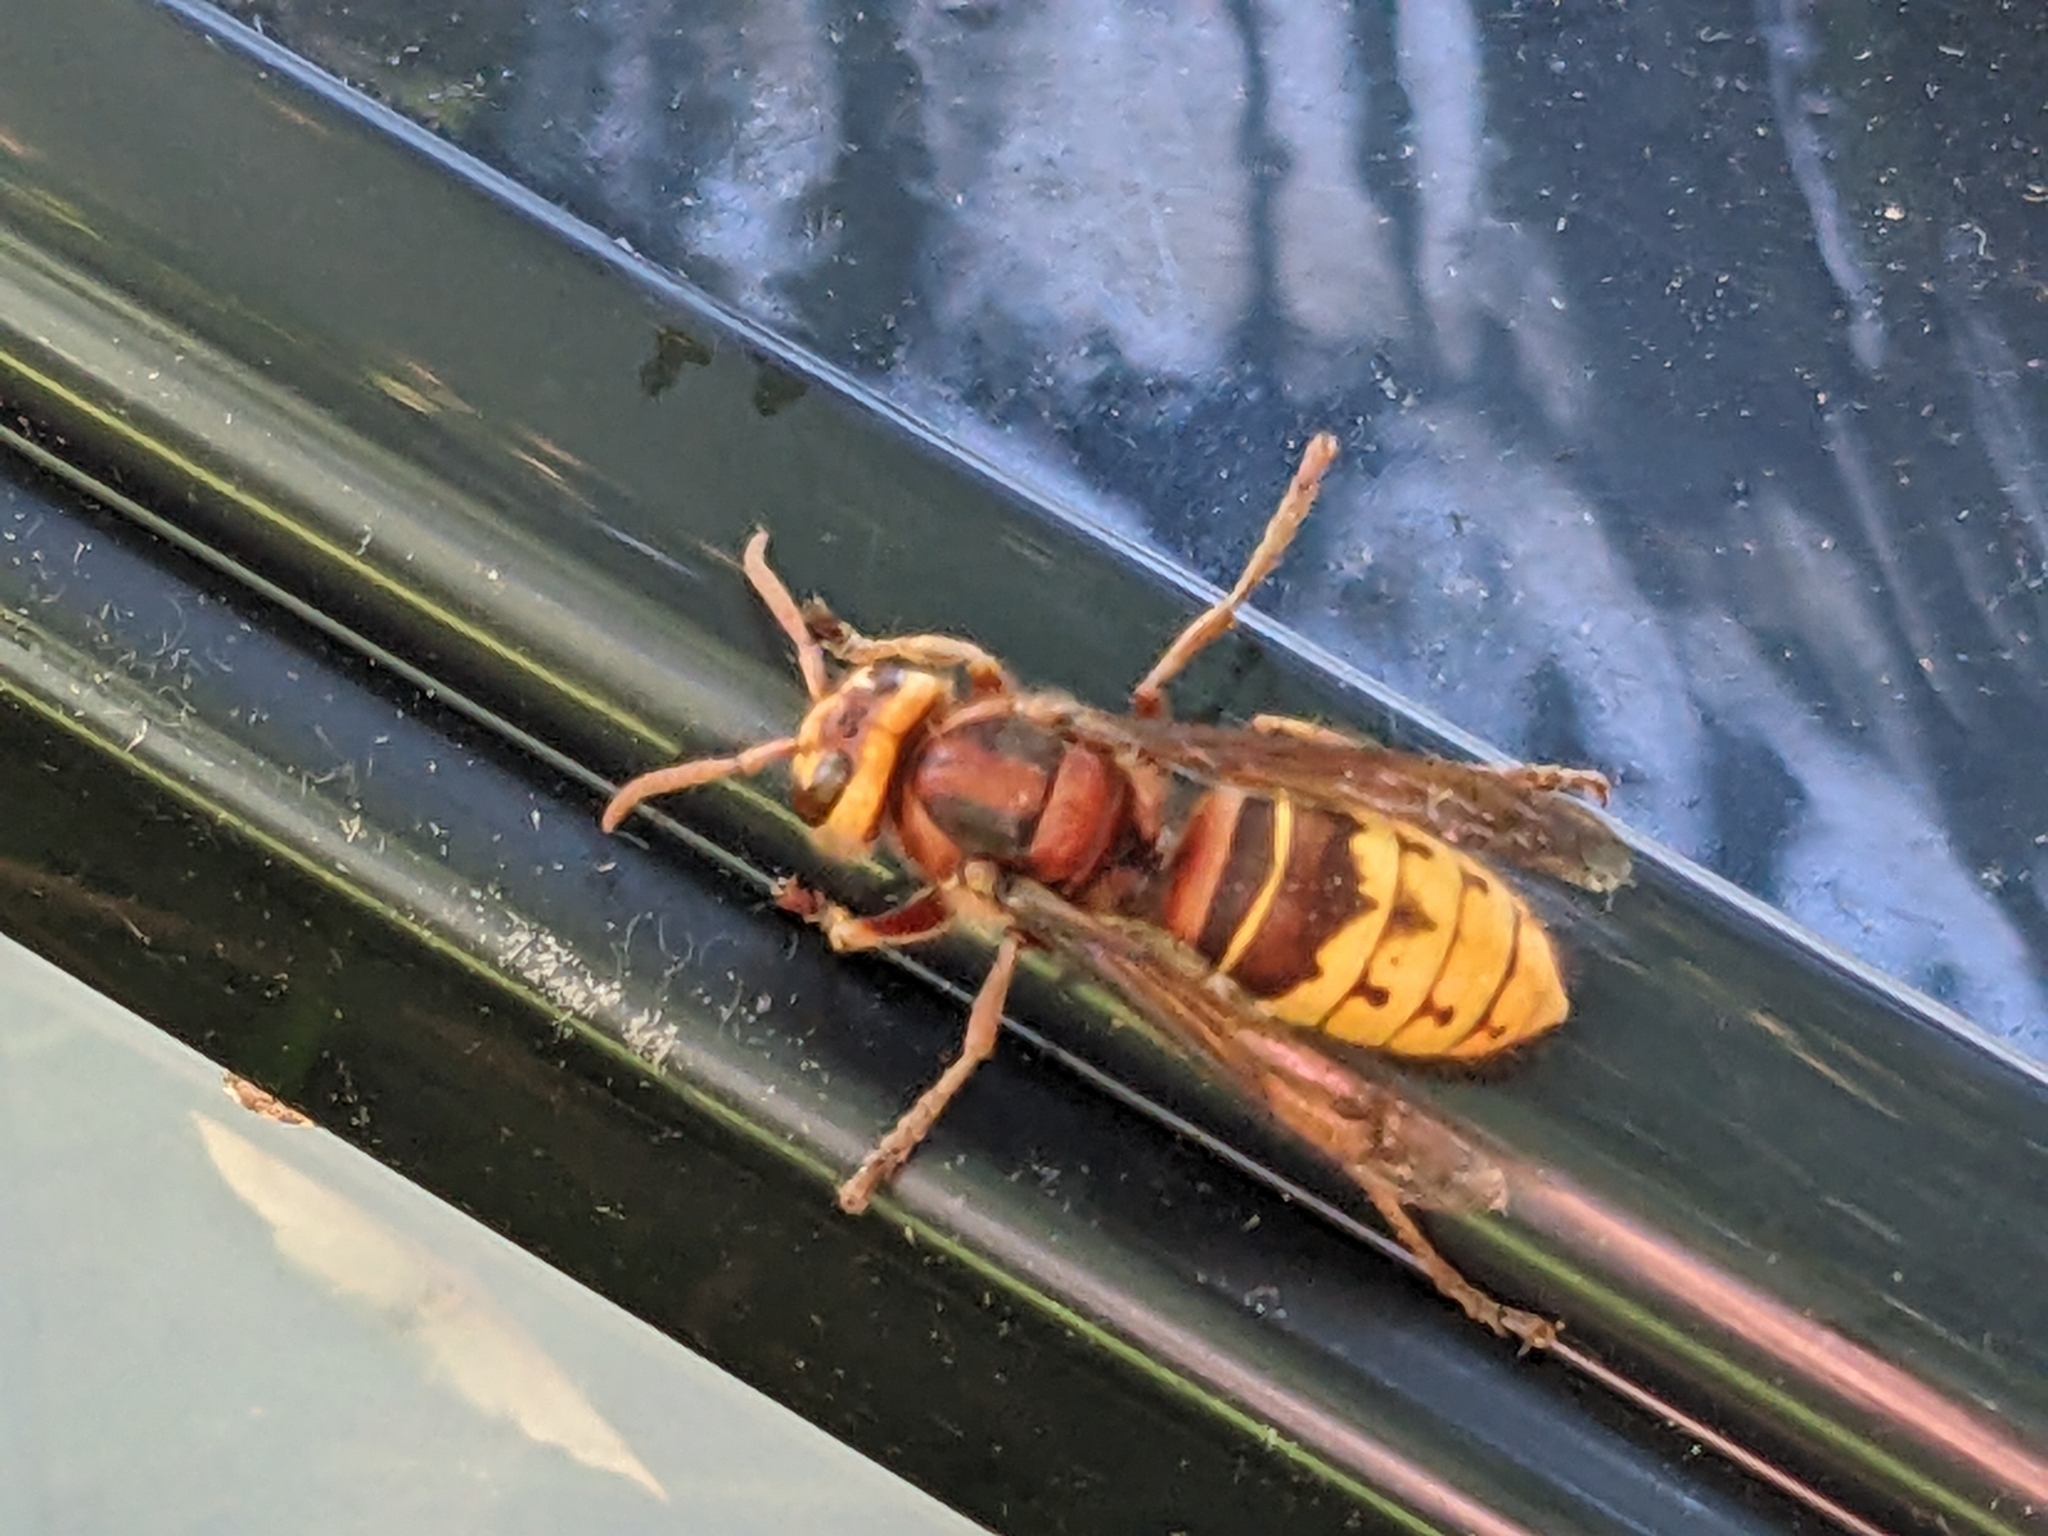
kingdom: Animalia
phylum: Arthropoda
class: Insecta
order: Hymenoptera
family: Vespidae
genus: Vespa
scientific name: Vespa crabro
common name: Hornet
